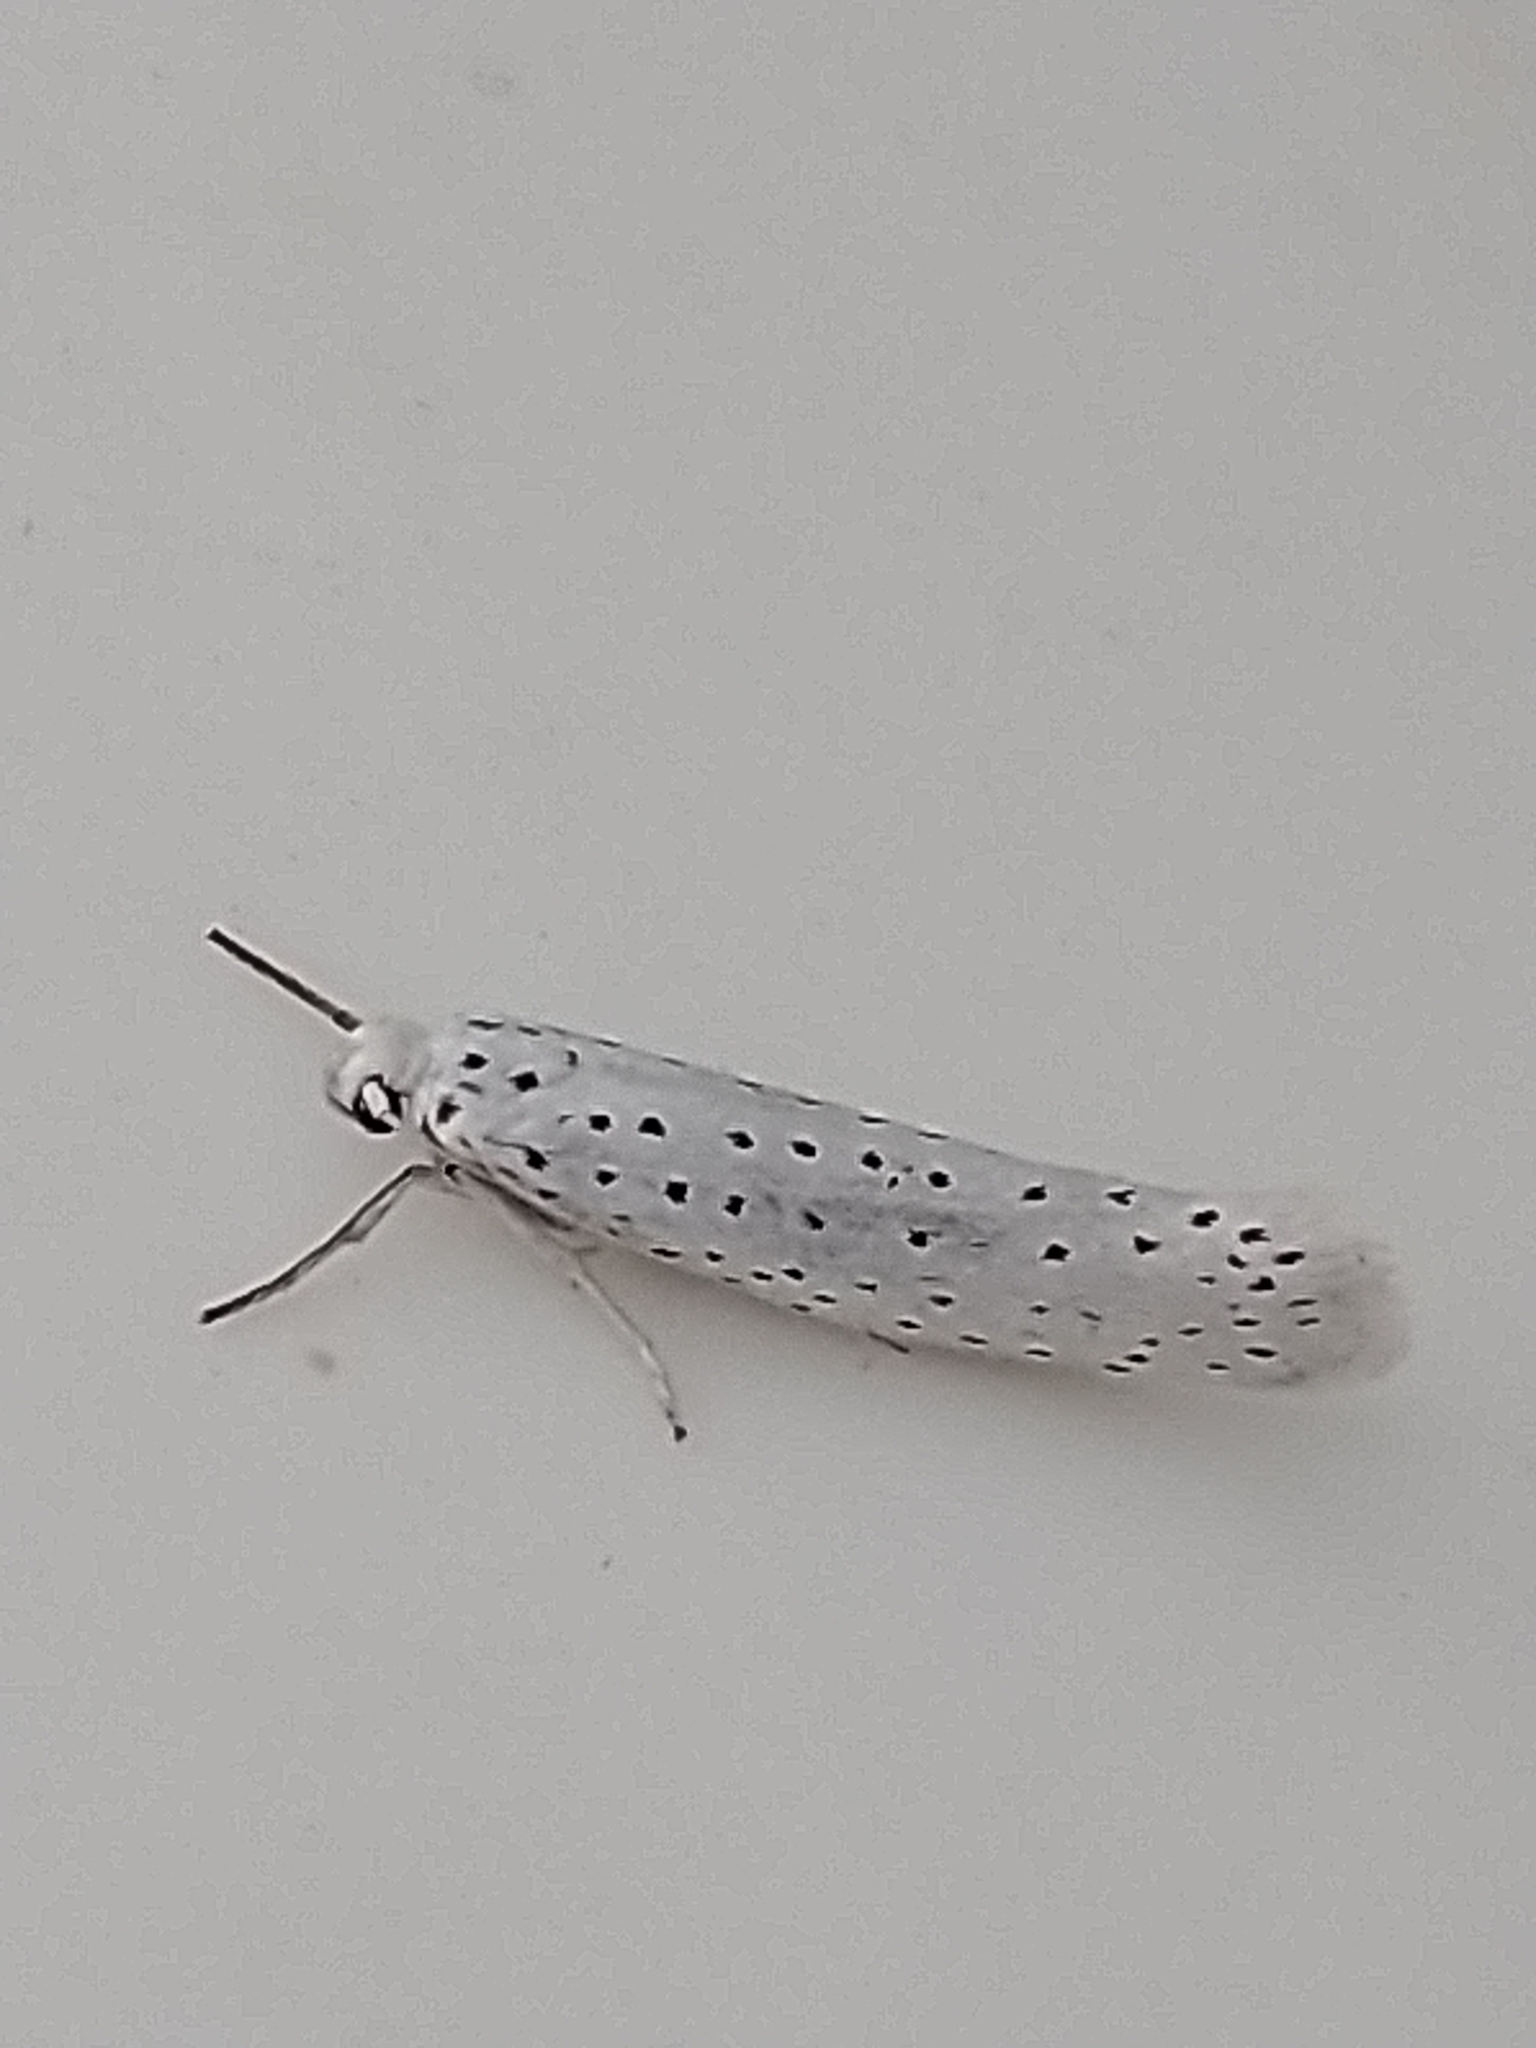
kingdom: Animalia
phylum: Arthropoda
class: Insecta
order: Lepidoptera
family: Yponomeutidae
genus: Yponomeuta
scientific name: Yponomeuta evonymella
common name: Bird-cherry ermine
